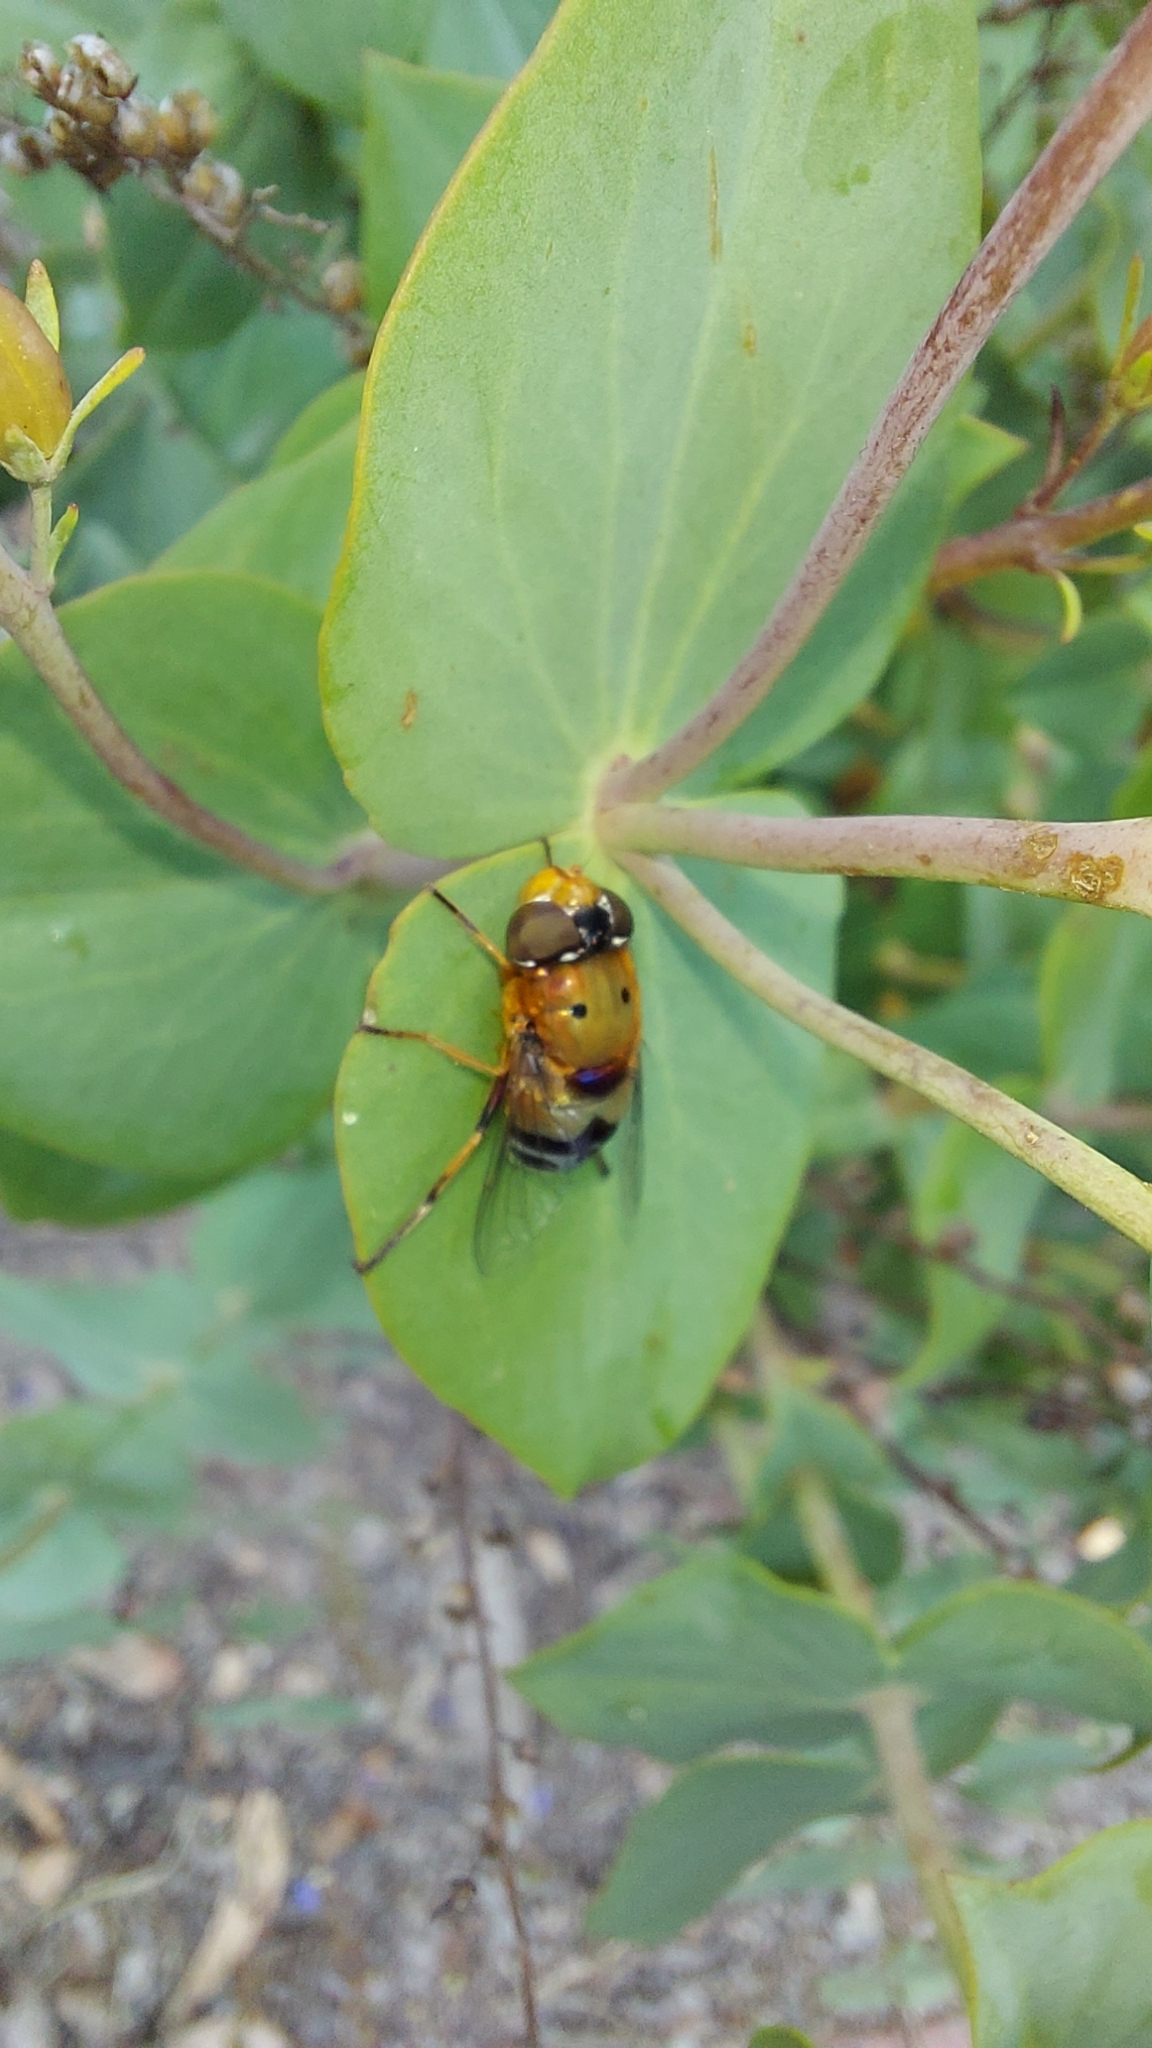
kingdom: Animalia
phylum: Arthropoda
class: Insecta
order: Diptera
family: Syrphidae
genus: Austalis
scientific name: Austalis pulchella
